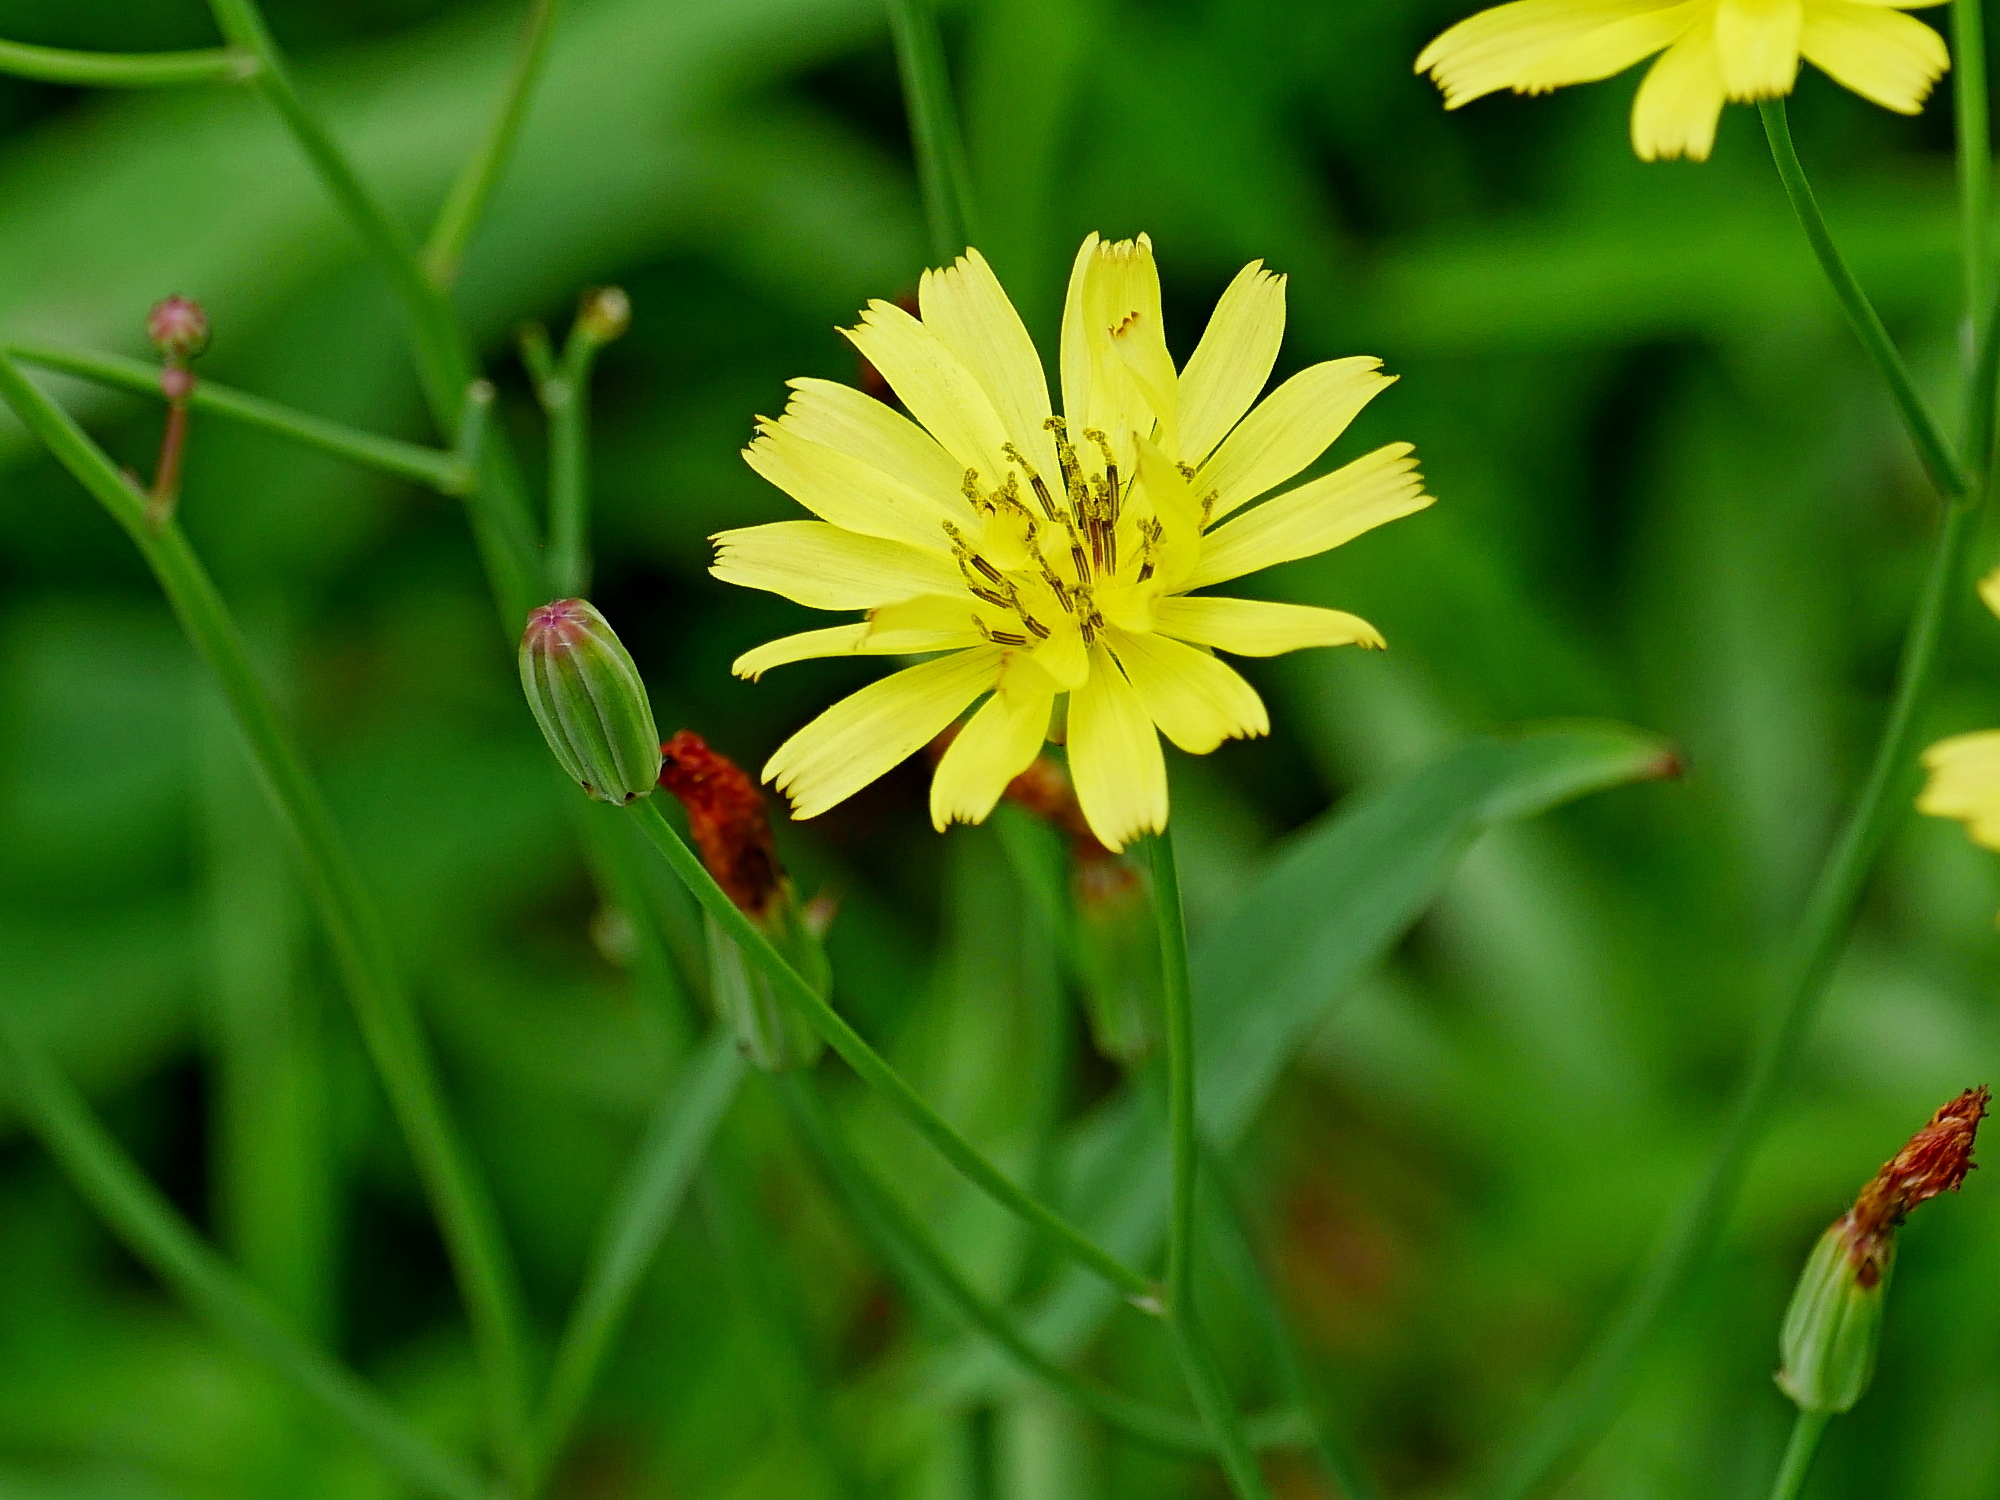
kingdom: Plantae
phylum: Tracheophyta
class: Magnoliopsida
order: Asterales
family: Asteraceae
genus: Ixeris
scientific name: Ixeris chinensis
